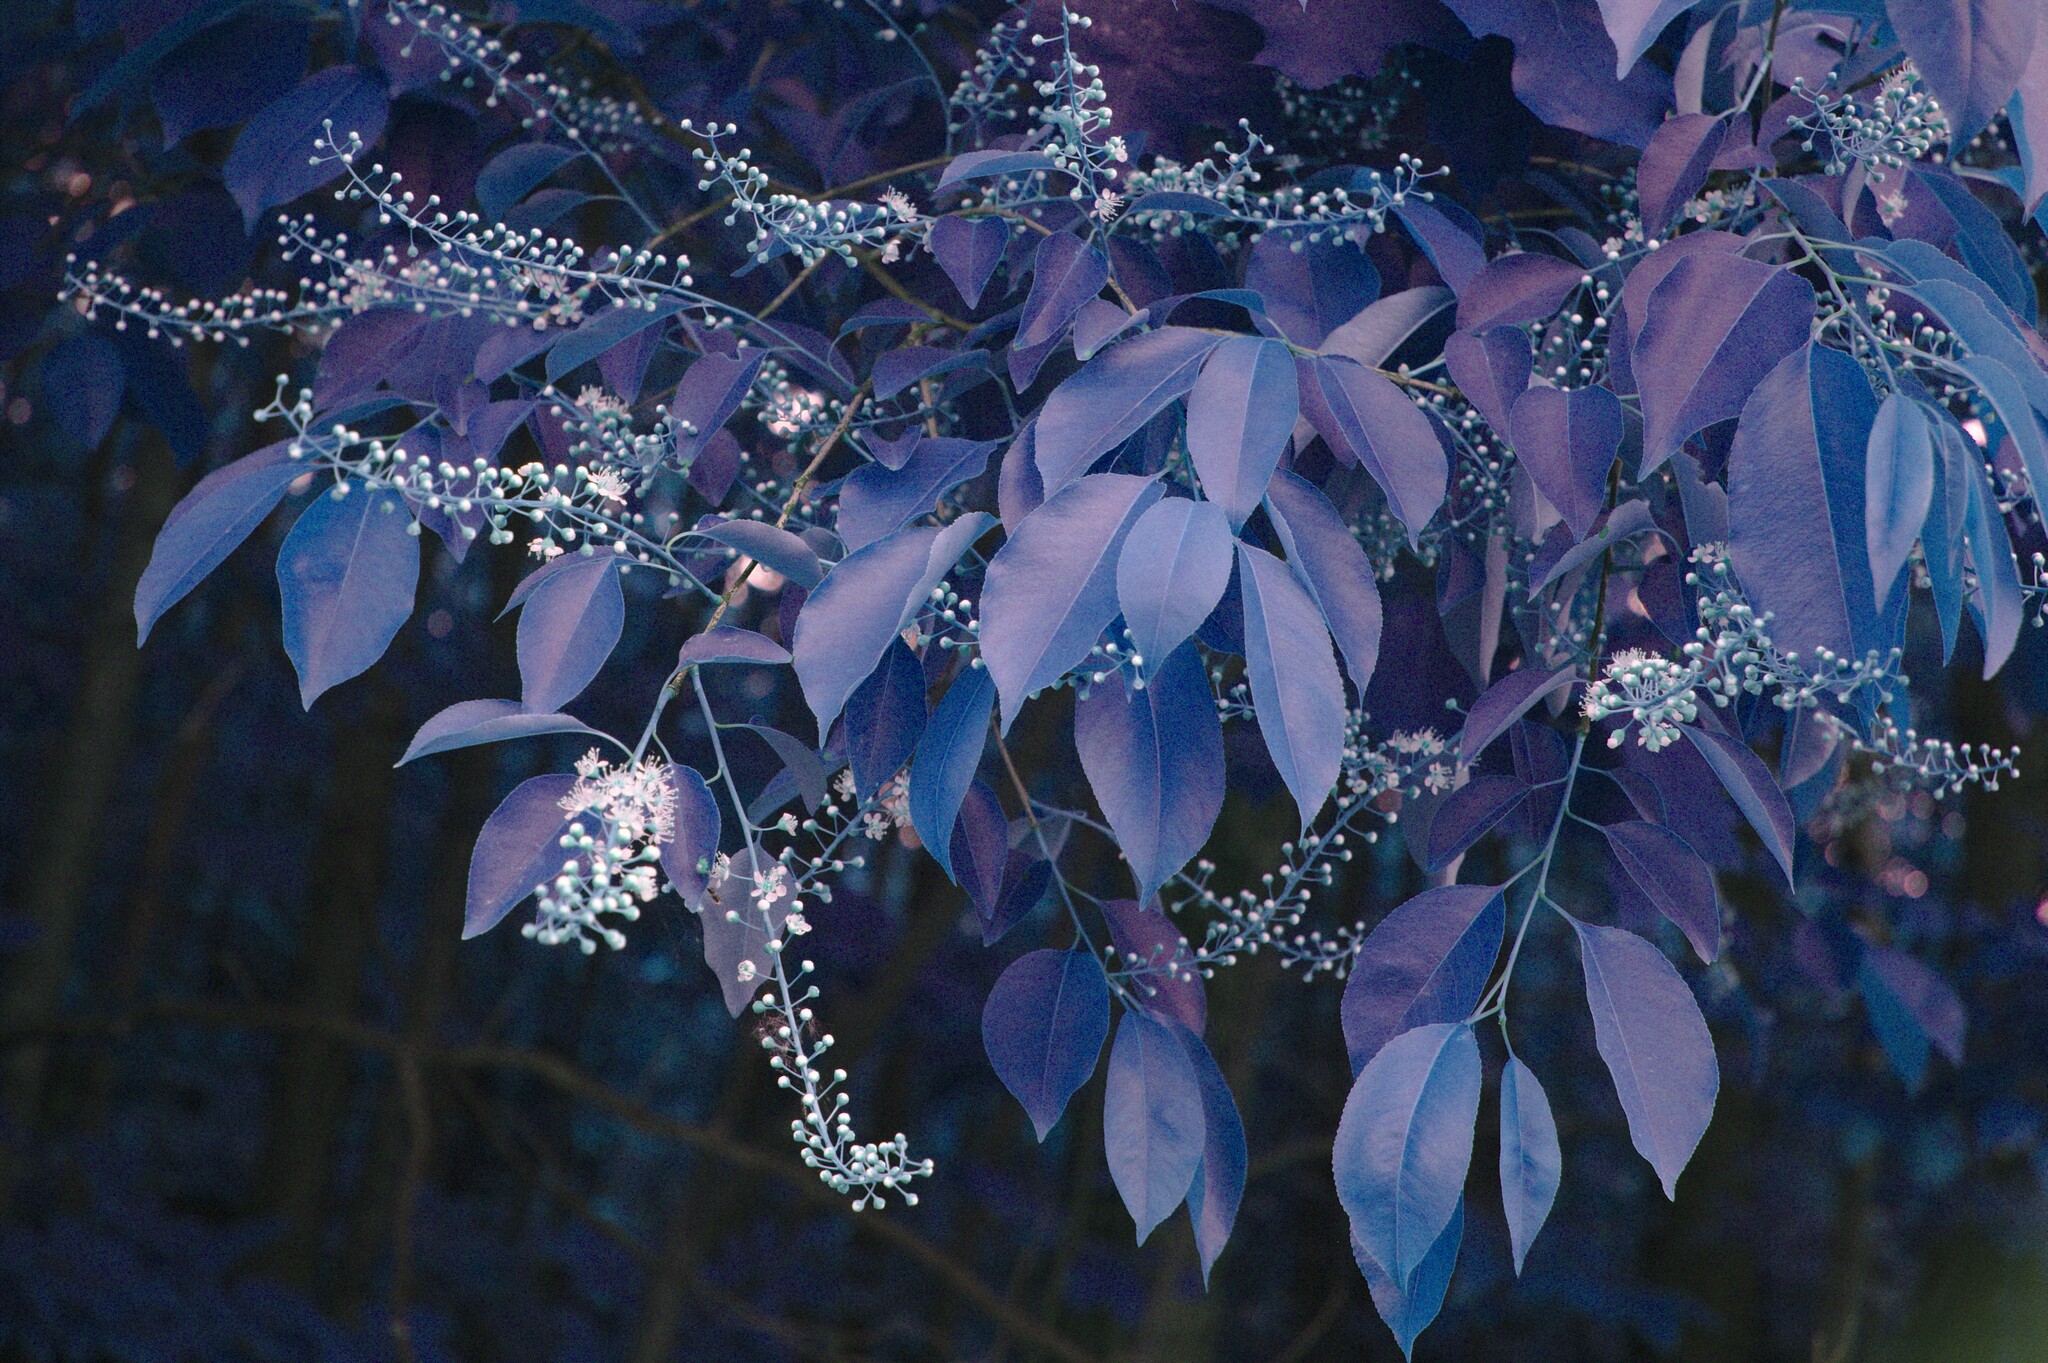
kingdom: Plantae
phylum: Tracheophyta
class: Magnoliopsida
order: Rosales
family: Rosaceae
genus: Prunus
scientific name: Prunus serotina
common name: Black cherry
